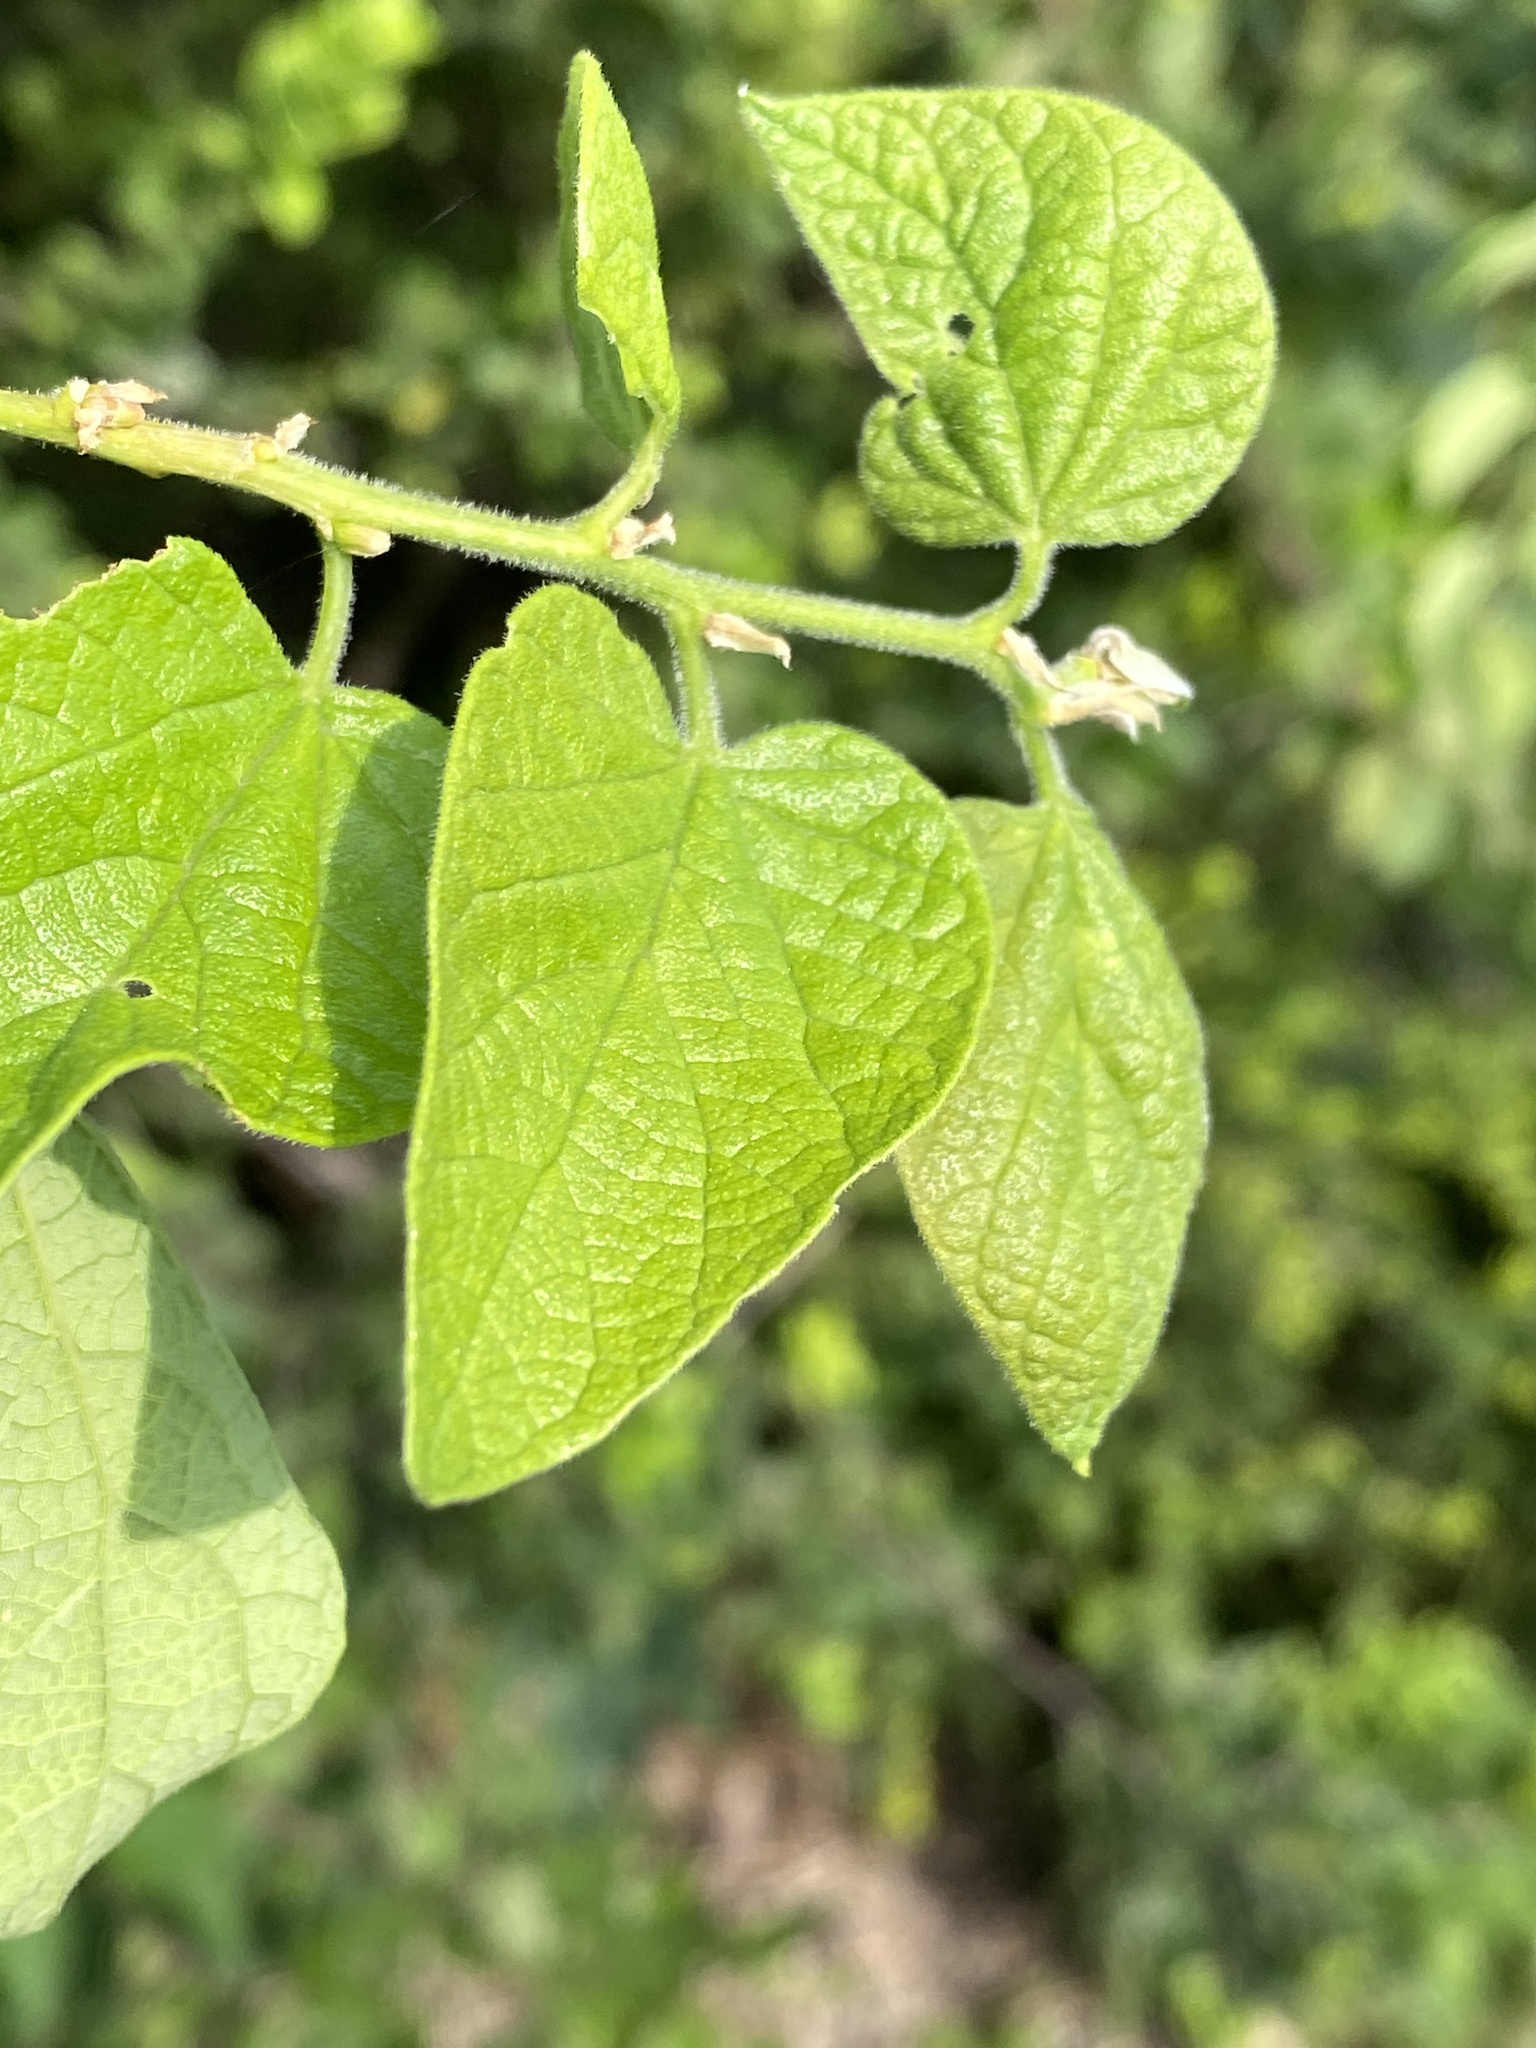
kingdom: Plantae
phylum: Tracheophyta
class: Magnoliopsida
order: Rosales
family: Cannabaceae
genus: Celtis
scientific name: Celtis reticulata
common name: Netleaf hackberry
